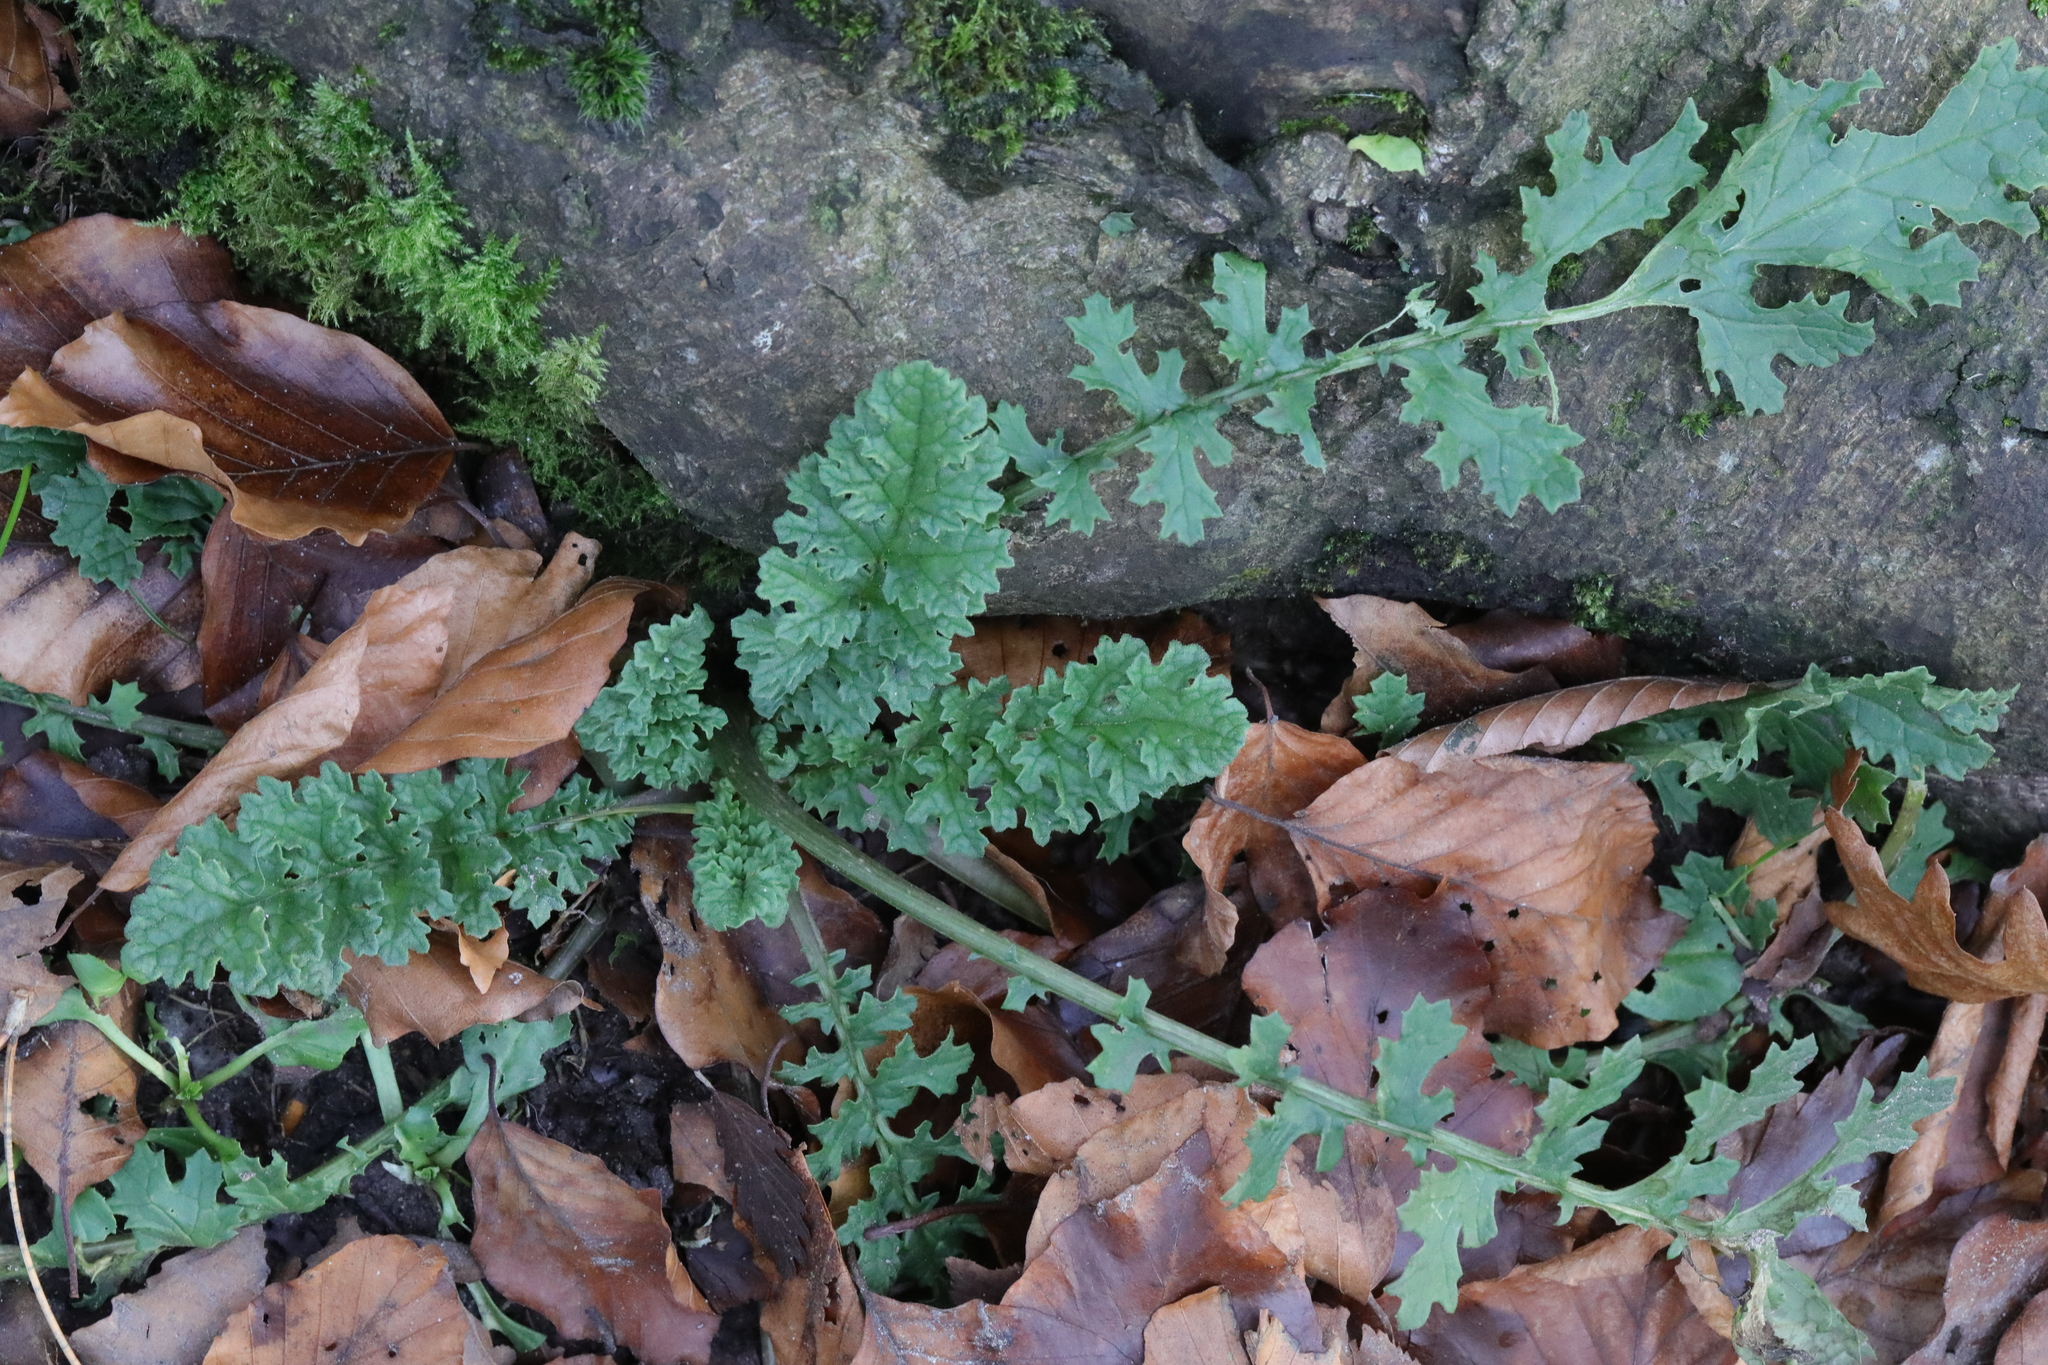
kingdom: Plantae
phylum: Tracheophyta
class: Magnoliopsida
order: Asterales
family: Asteraceae
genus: Jacobaea
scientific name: Jacobaea vulgaris
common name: Stinking willie
